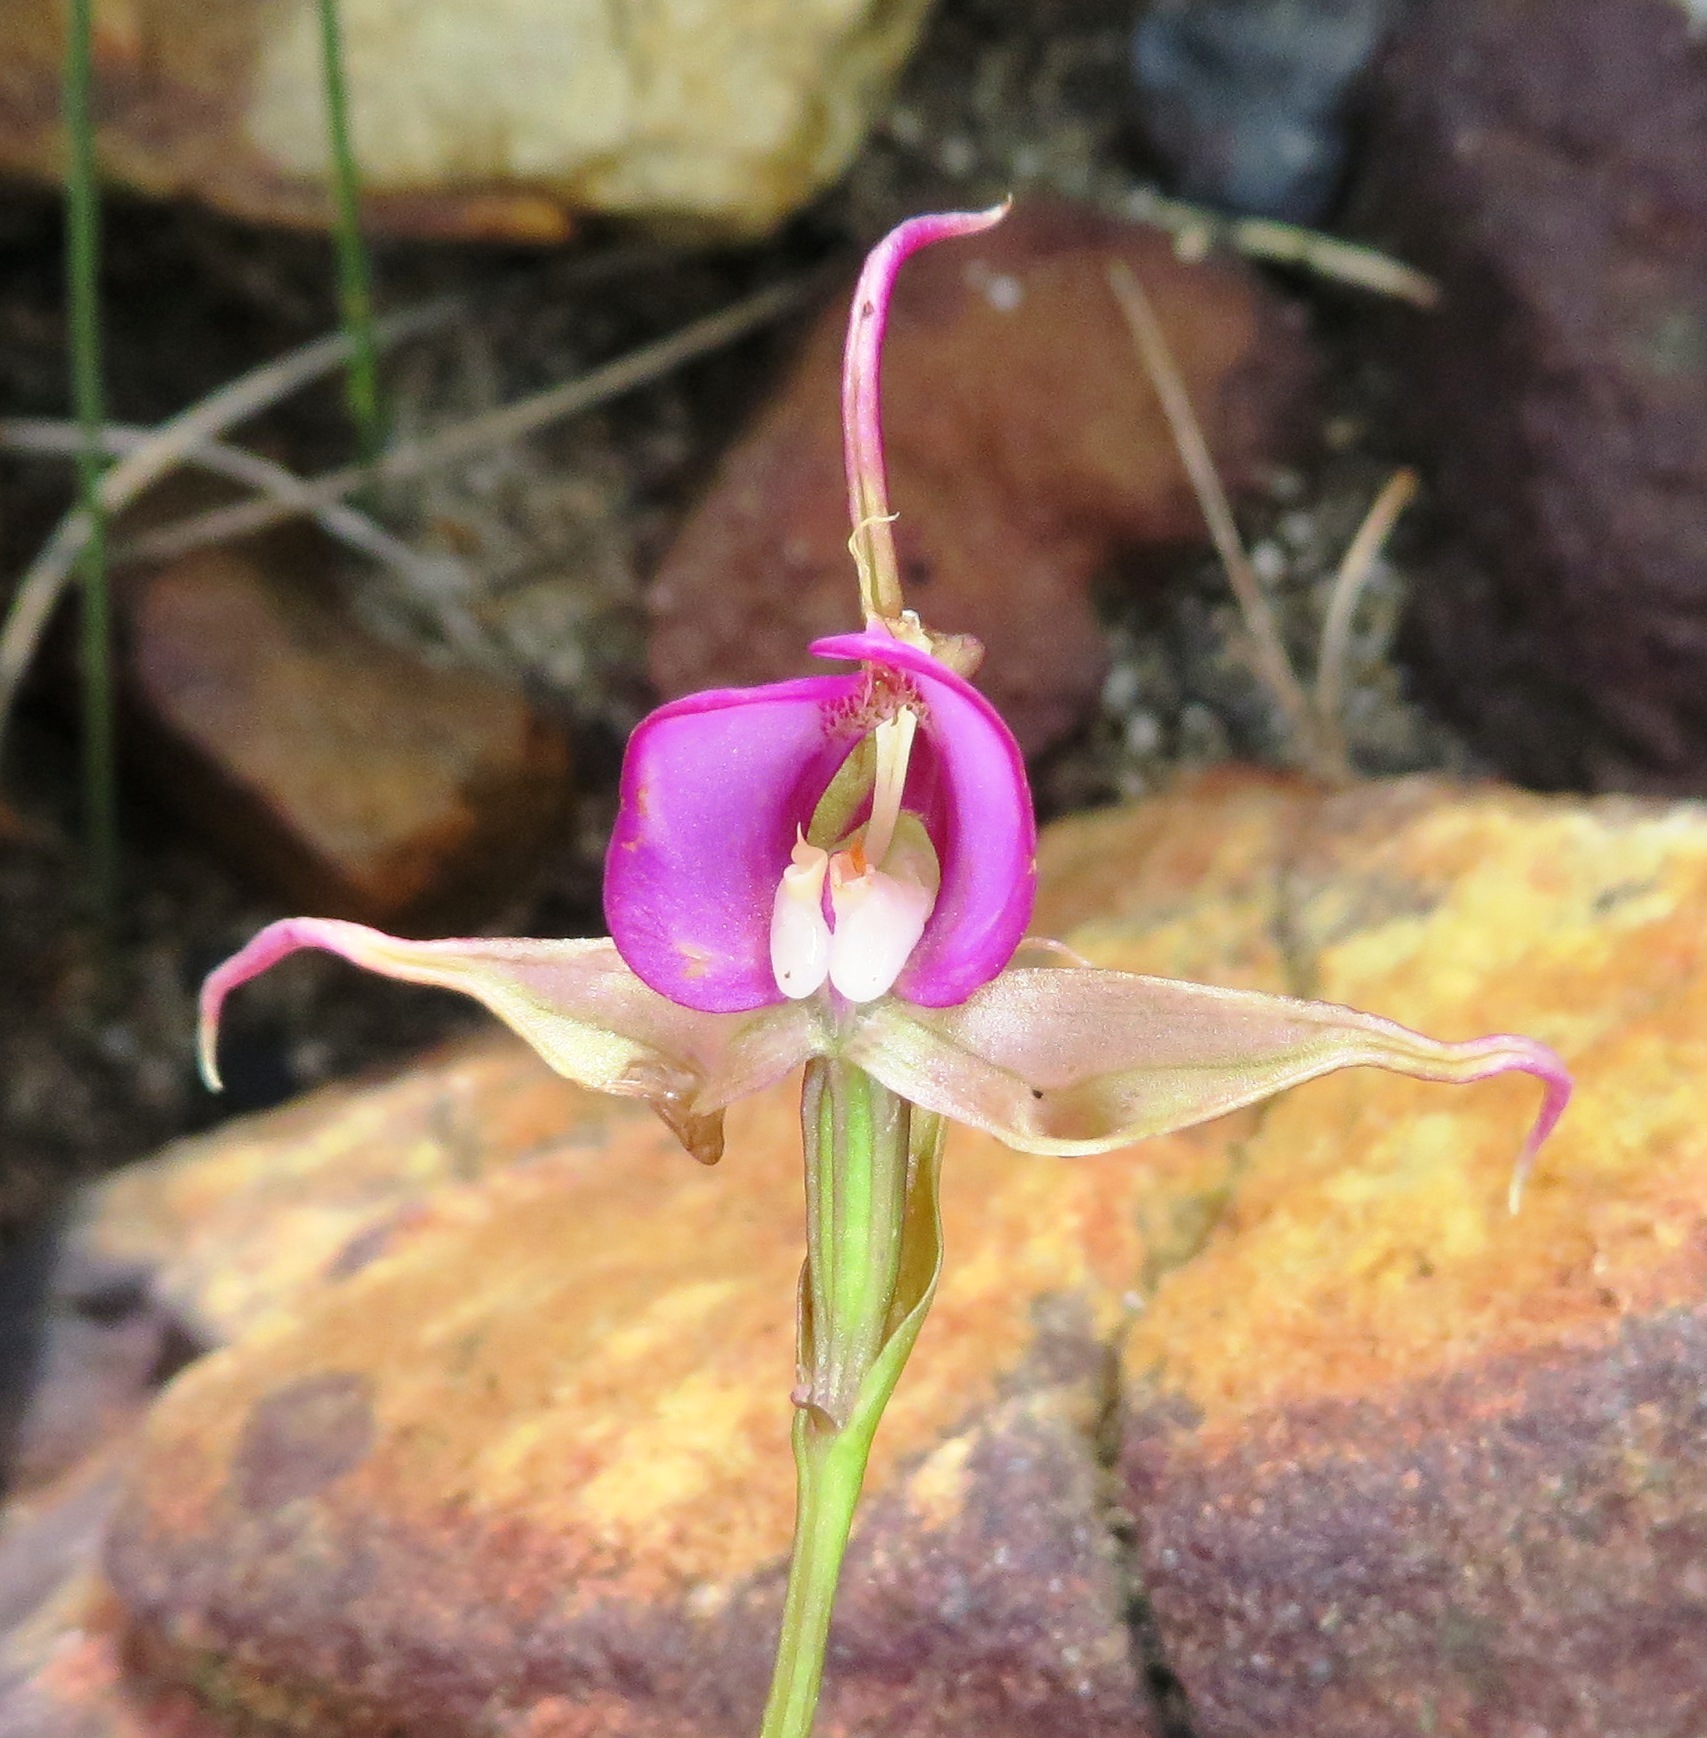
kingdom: Plantae
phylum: Tracheophyta
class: Liliopsida
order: Asparagales
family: Orchidaceae
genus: Disperis
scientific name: Disperis capensis
